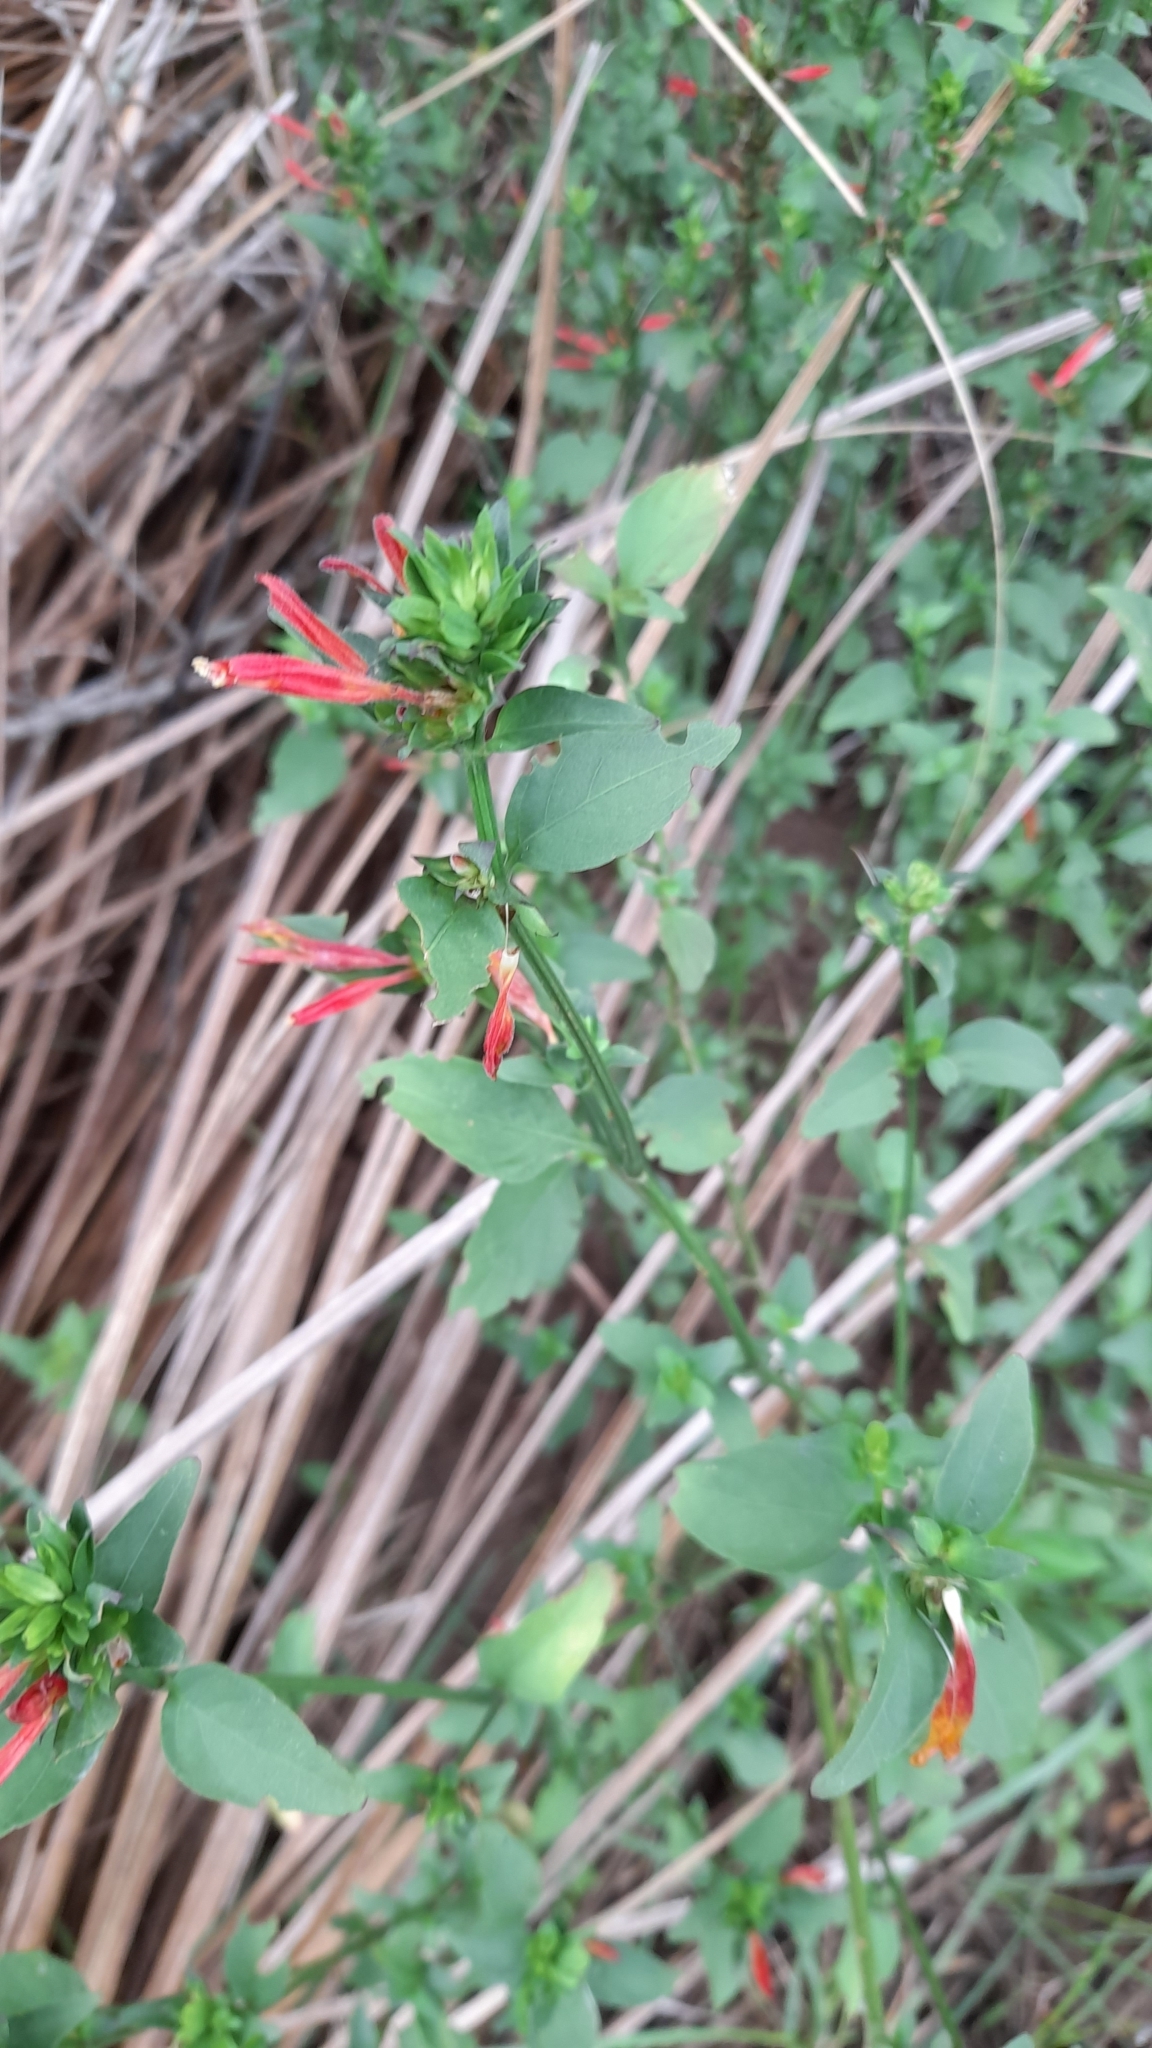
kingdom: Plantae
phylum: Tracheophyta
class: Magnoliopsida
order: Lamiales
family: Acanthaceae
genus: Dicliptera
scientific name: Dicliptera squarrosa
